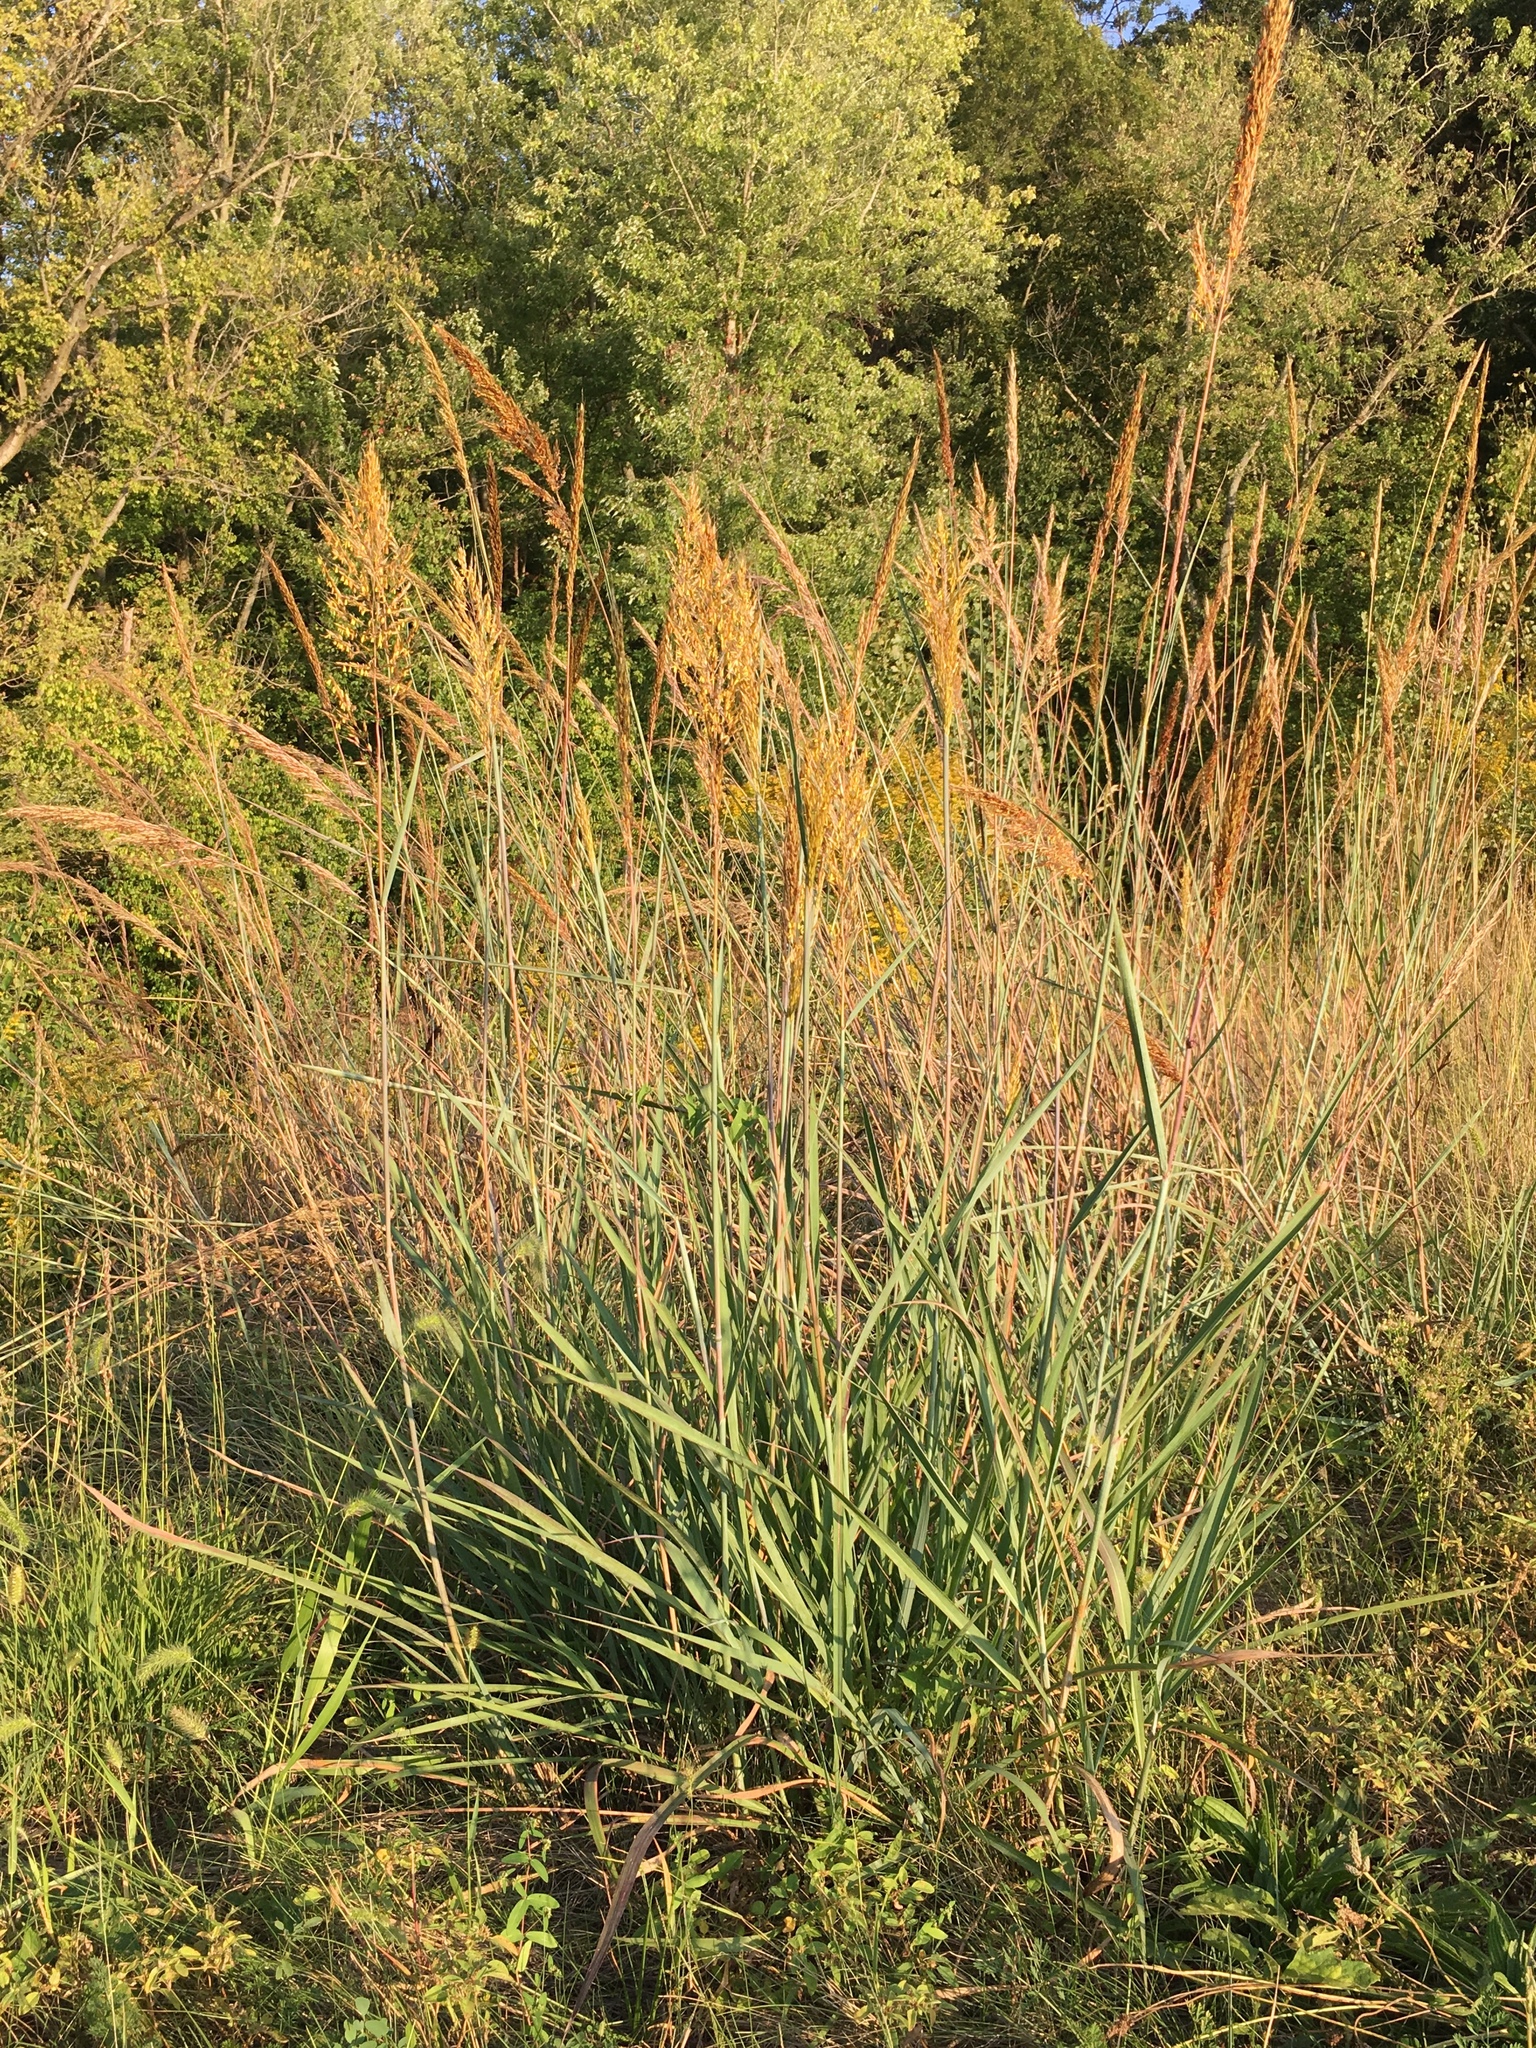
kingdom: Plantae
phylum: Tracheophyta
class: Liliopsida
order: Poales
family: Poaceae
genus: Sorghastrum
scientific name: Sorghastrum nutans
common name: Indian grass
